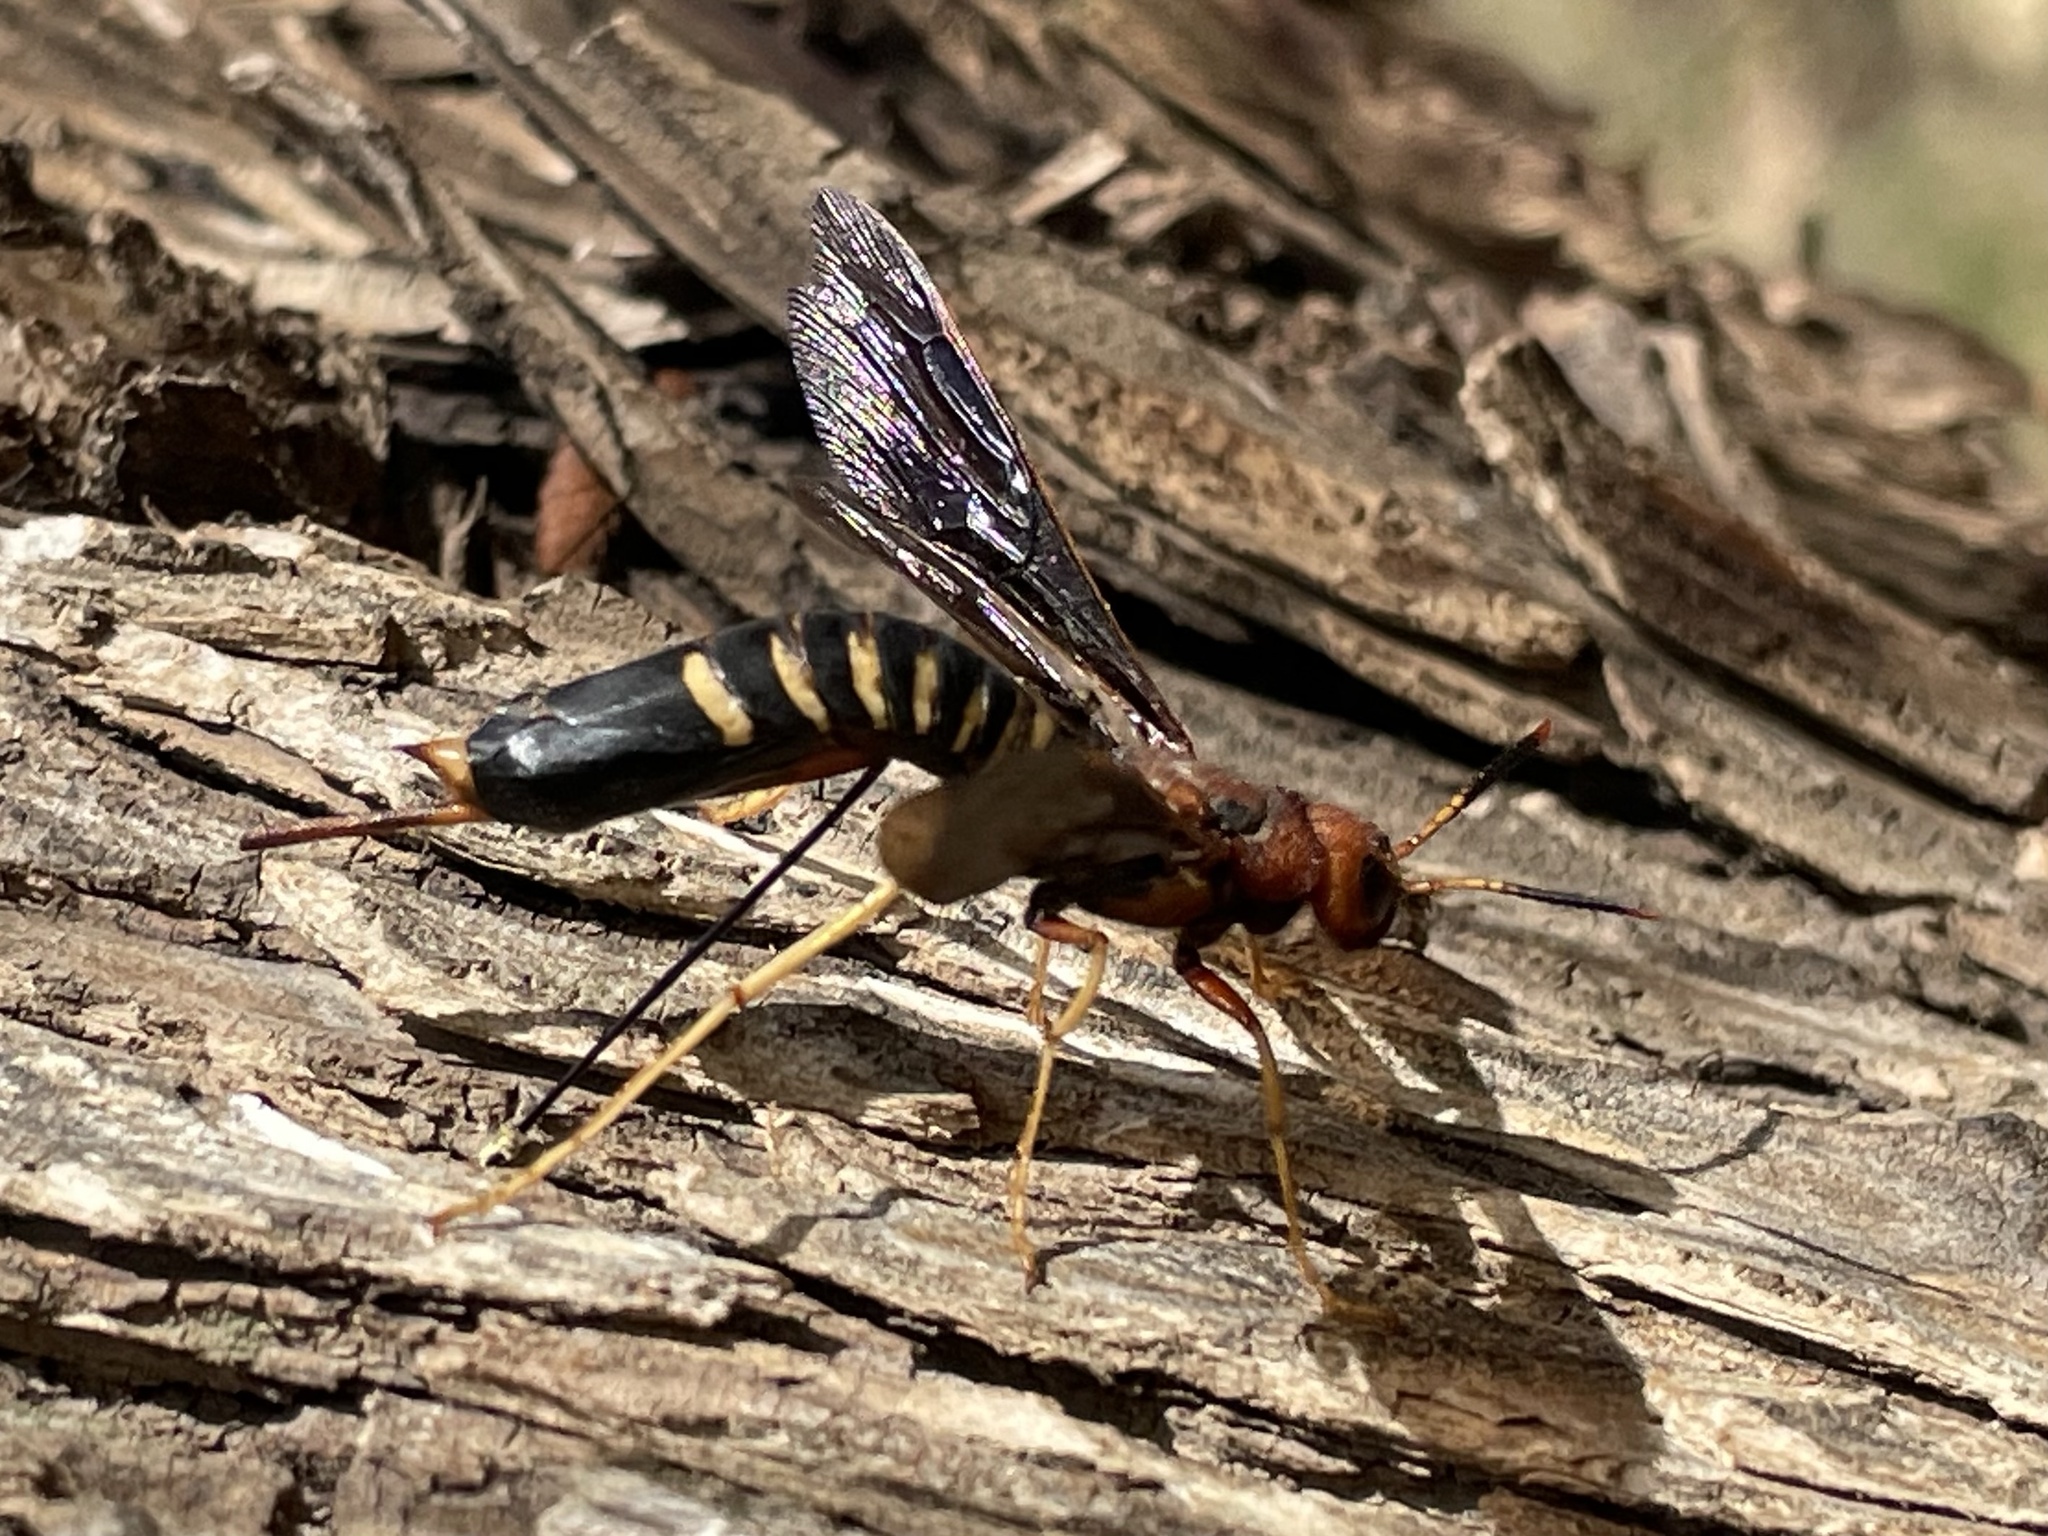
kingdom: Animalia
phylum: Arthropoda
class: Insecta
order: Hymenoptera
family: Siricidae
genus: Tremex
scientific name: Tremex columba
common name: Wasp
